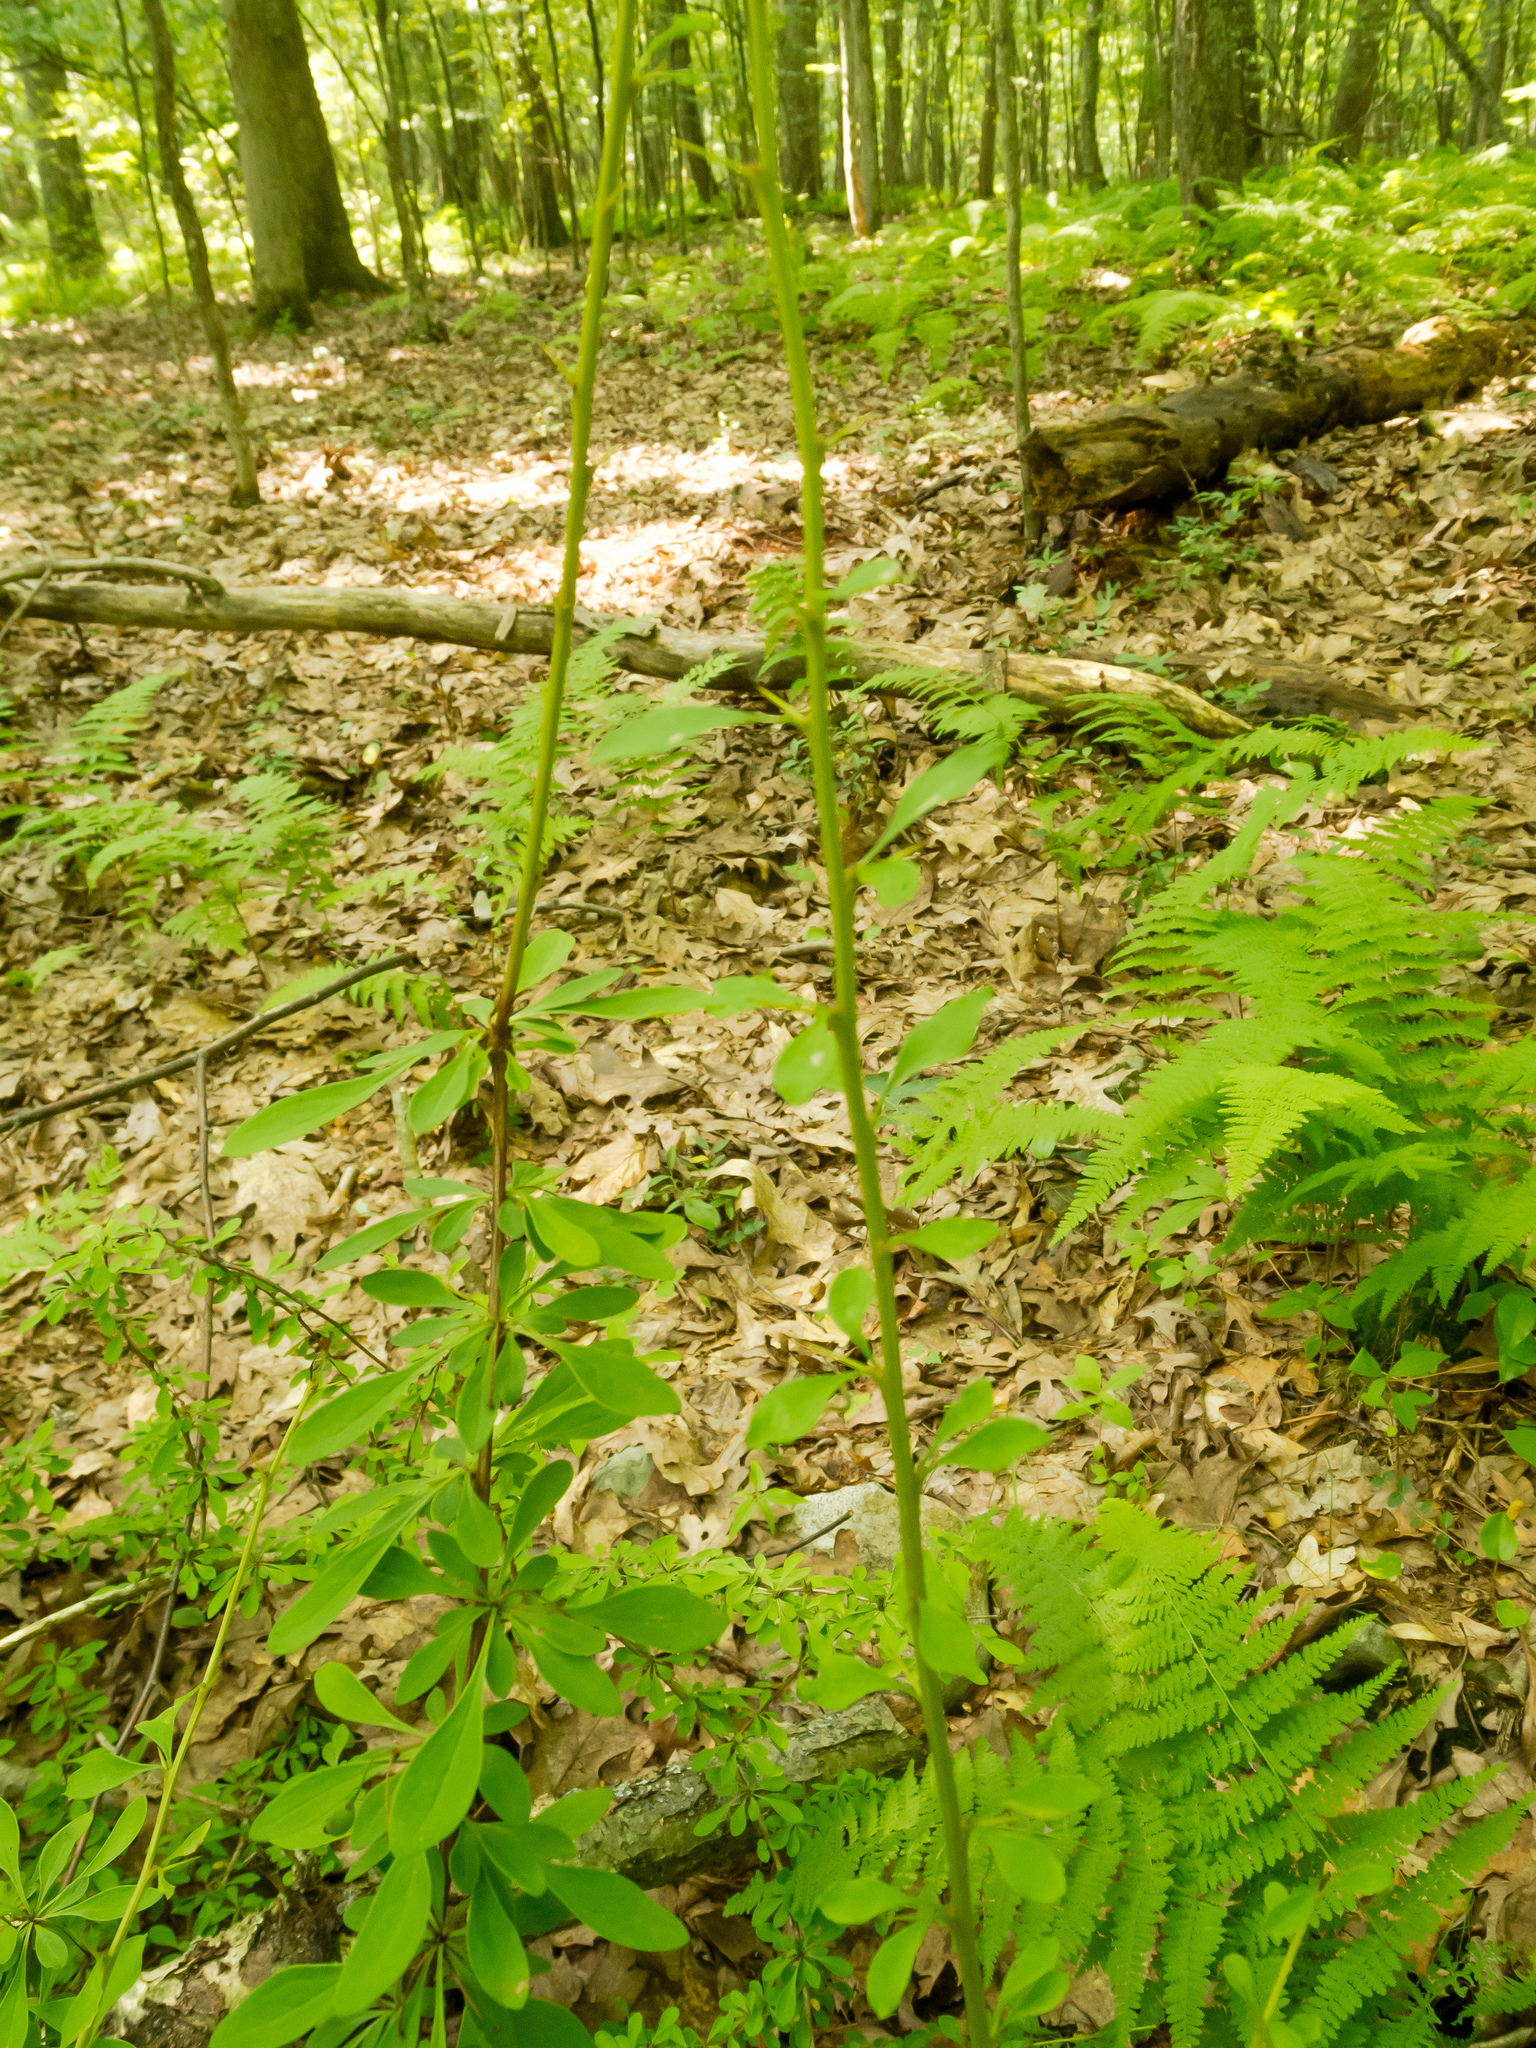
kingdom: Plantae
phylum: Tracheophyta
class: Magnoliopsida
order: Ranunculales
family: Berberidaceae
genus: Berberis
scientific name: Berberis thunbergii
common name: Japanese barberry
